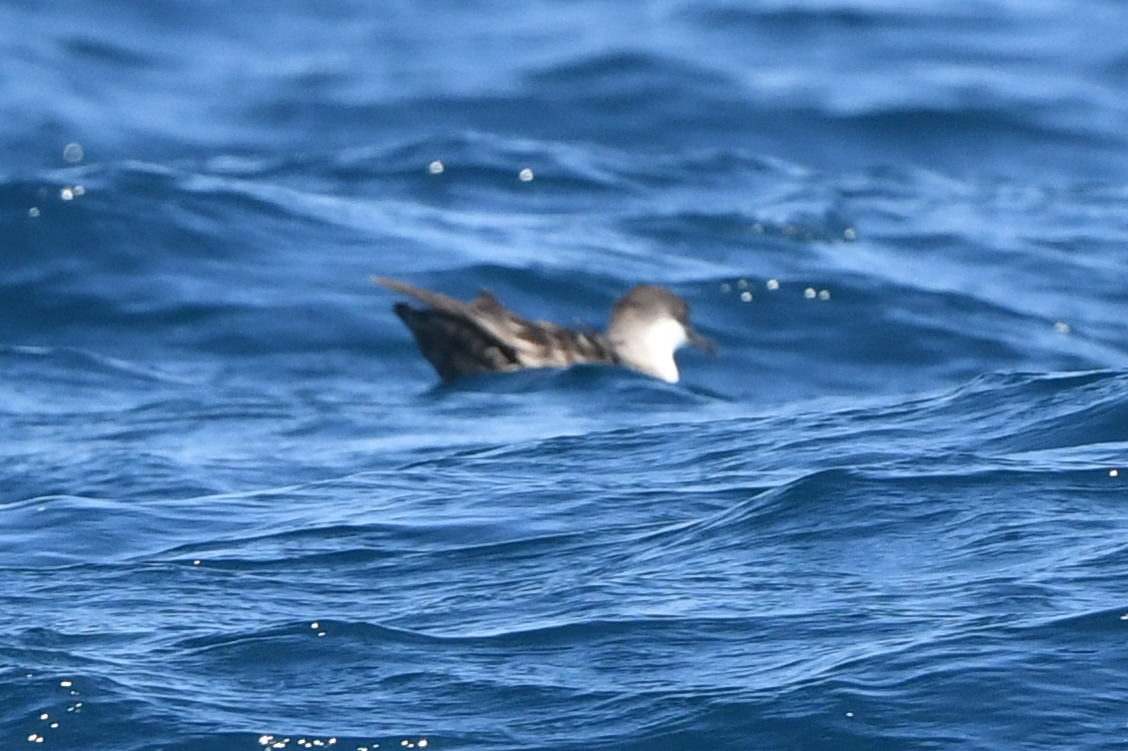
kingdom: Animalia
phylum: Chordata
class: Aves
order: Procellariiformes
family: Procellariidae
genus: Puffinus
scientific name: Puffinus gravis
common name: Great shearwater
